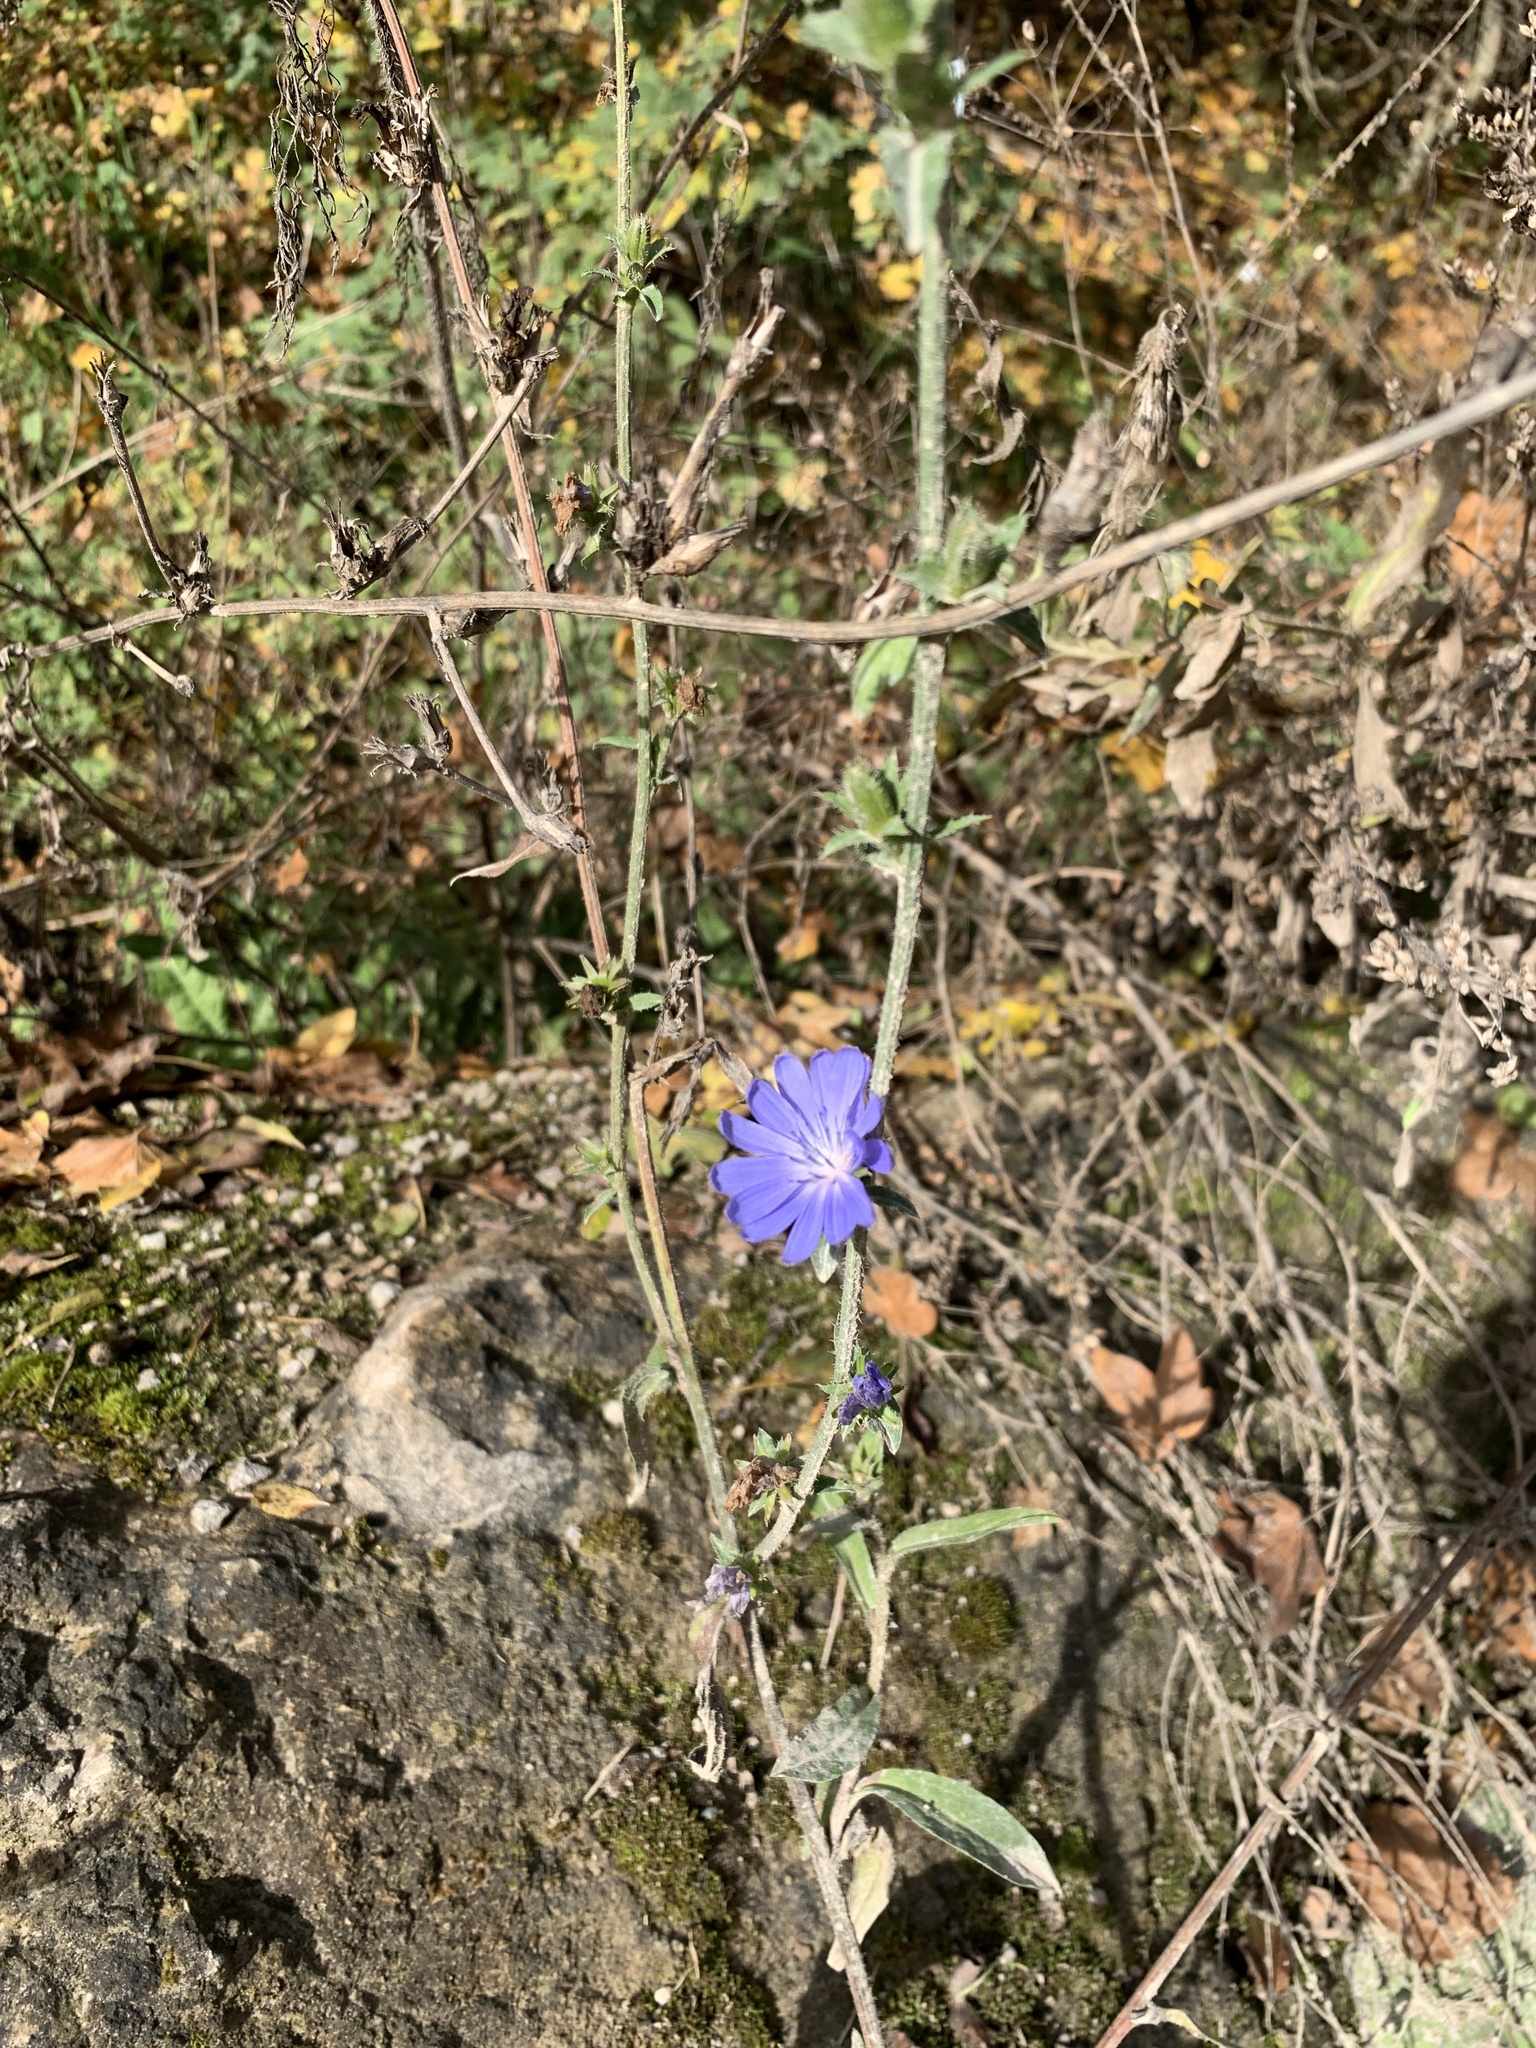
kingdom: Plantae
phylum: Tracheophyta
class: Magnoliopsida
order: Asterales
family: Asteraceae
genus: Cichorium
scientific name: Cichorium intybus
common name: Chicory
